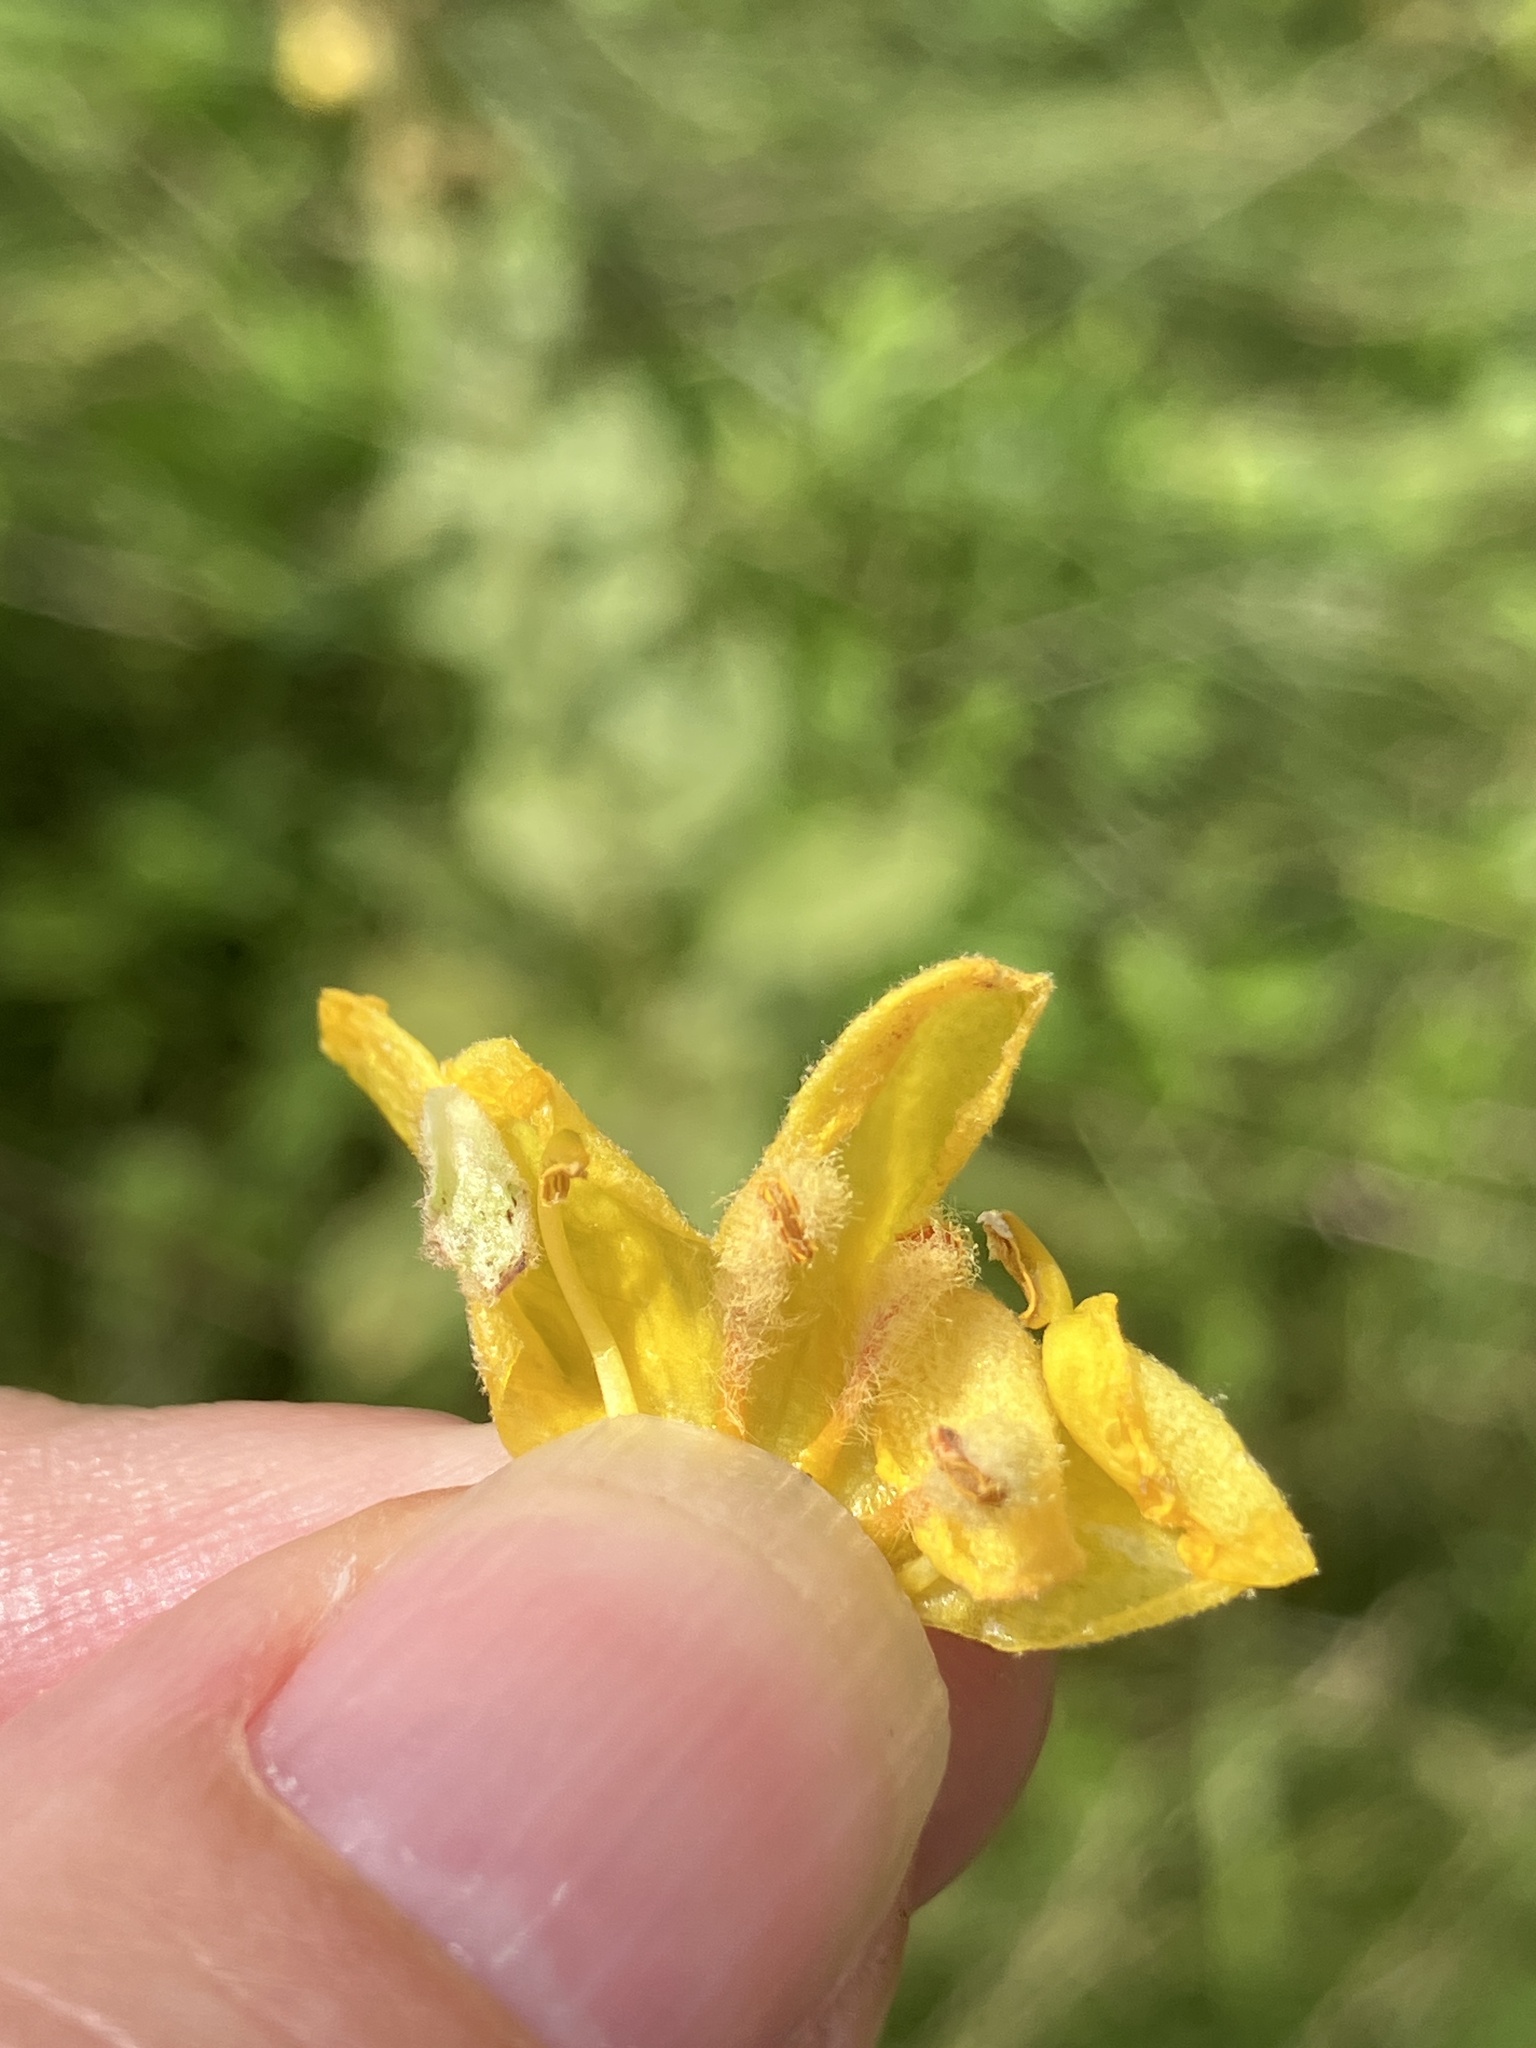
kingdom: Plantae
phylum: Tracheophyta
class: Magnoliopsida
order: Lamiales
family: Scrophulariaceae
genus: Verbascum
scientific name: Verbascum phlomoides
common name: Orange mullein
